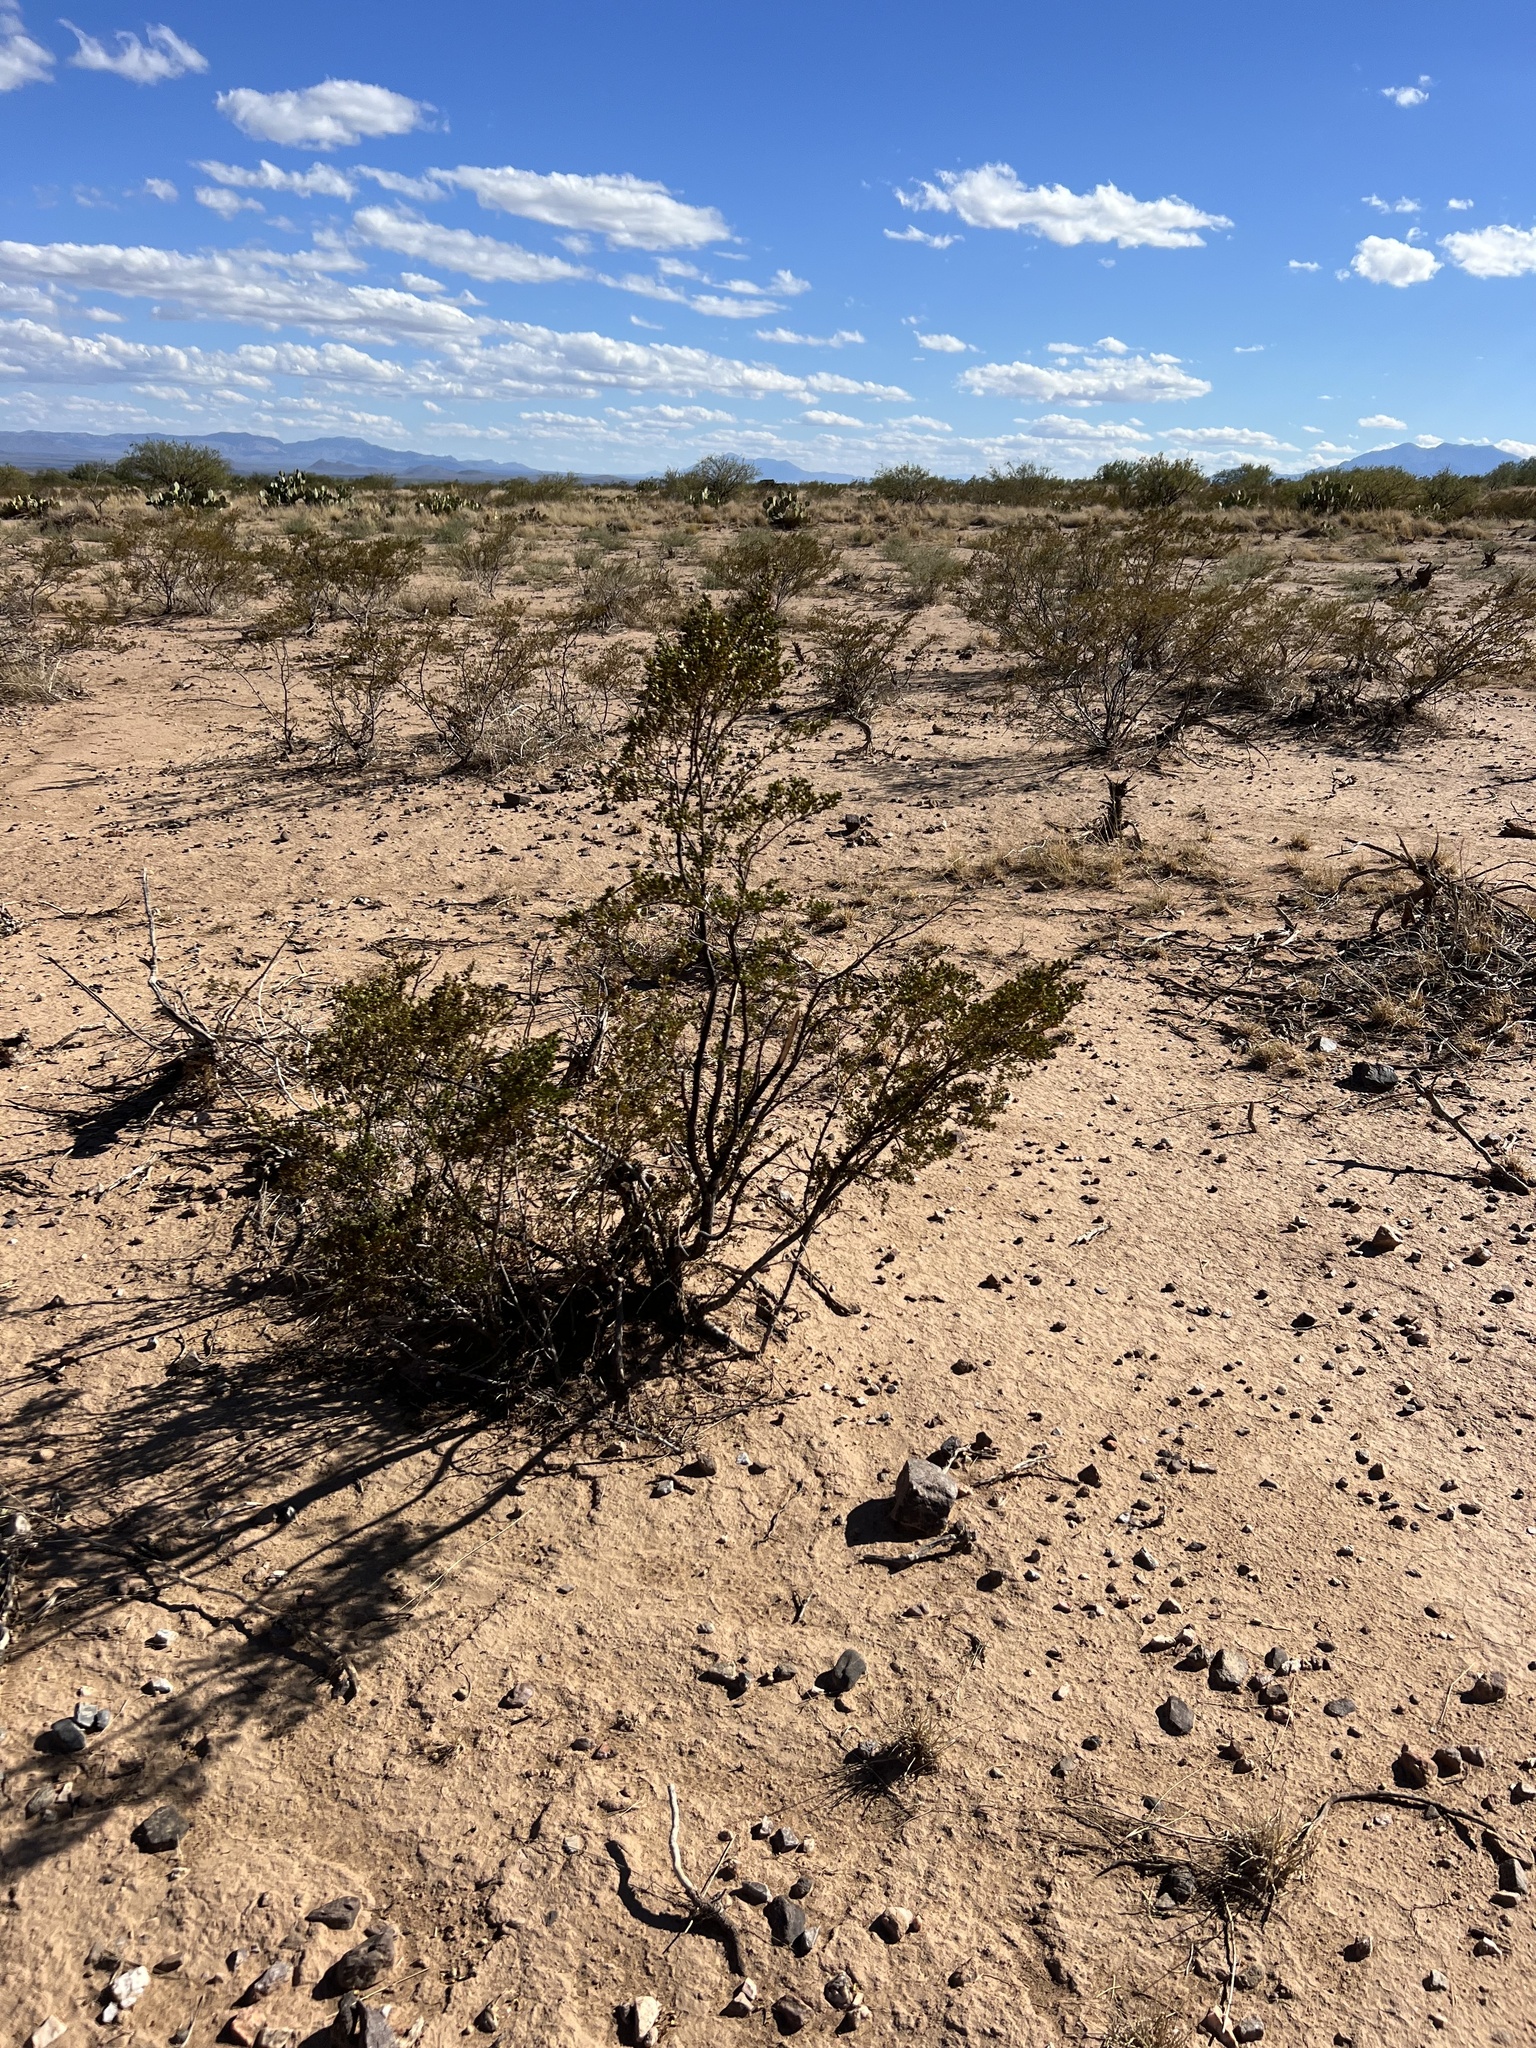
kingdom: Plantae
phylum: Tracheophyta
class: Magnoliopsida
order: Zygophyllales
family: Zygophyllaceae
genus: Larrea
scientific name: Larrea tridentata
